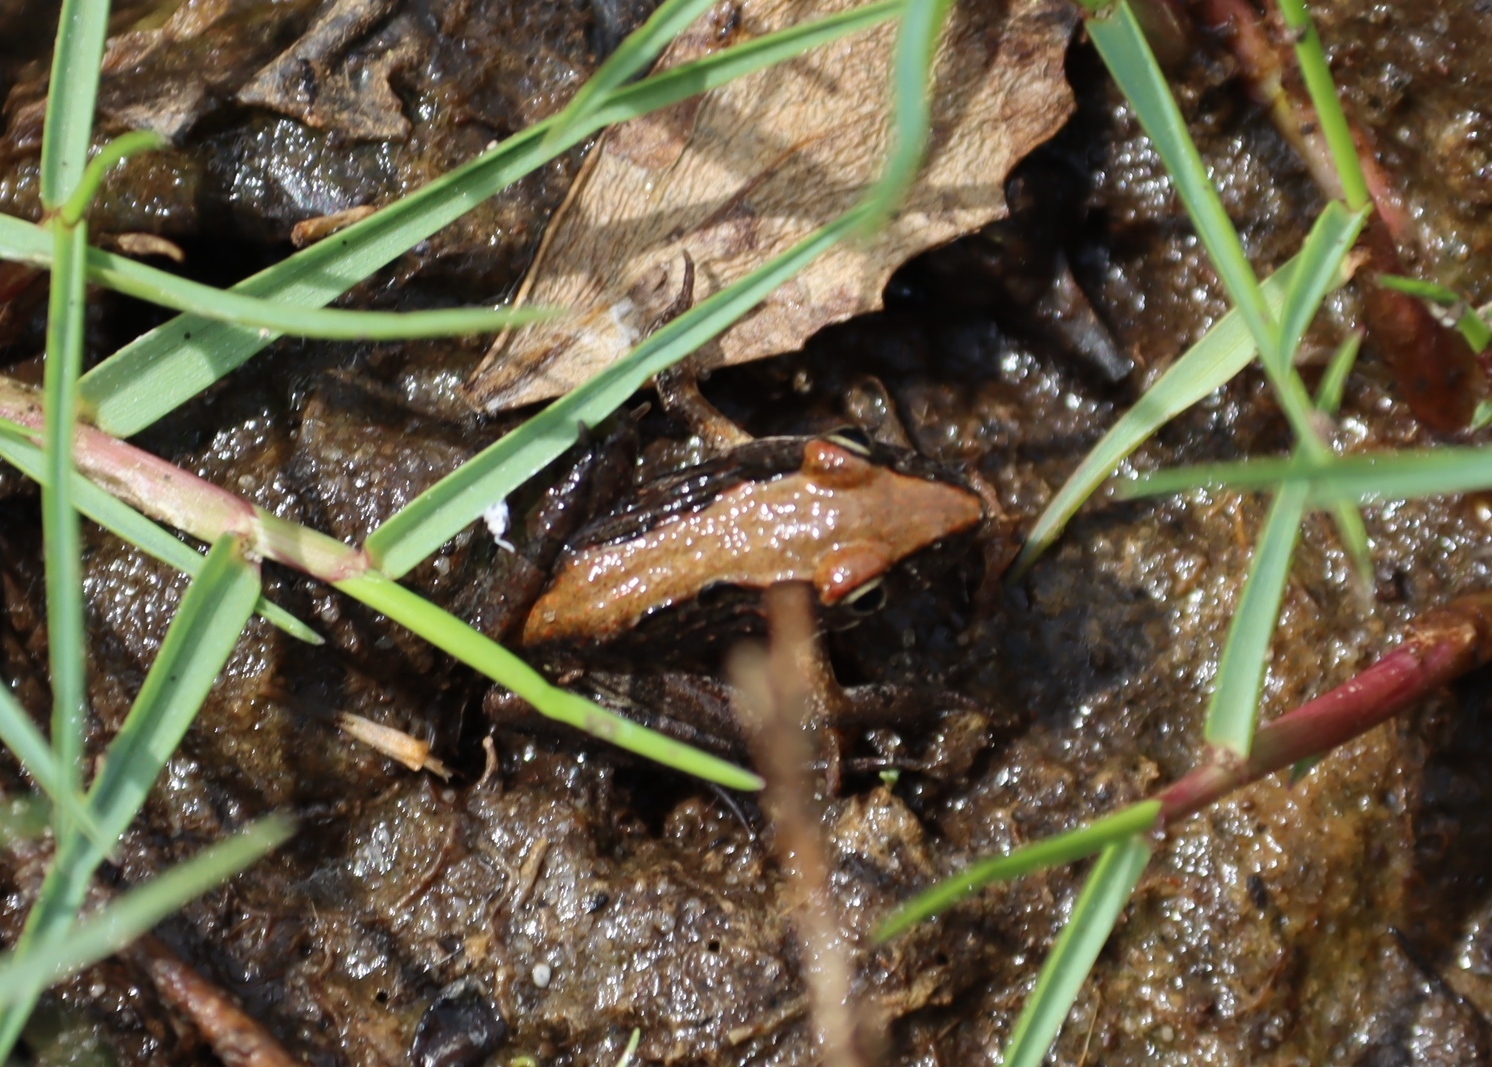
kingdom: Animalia
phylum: Chordata
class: Amphibia
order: Anura
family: Pyxicephalidae
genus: Strongylopus
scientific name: Strongylopus grayii
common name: Gray's stream frog
